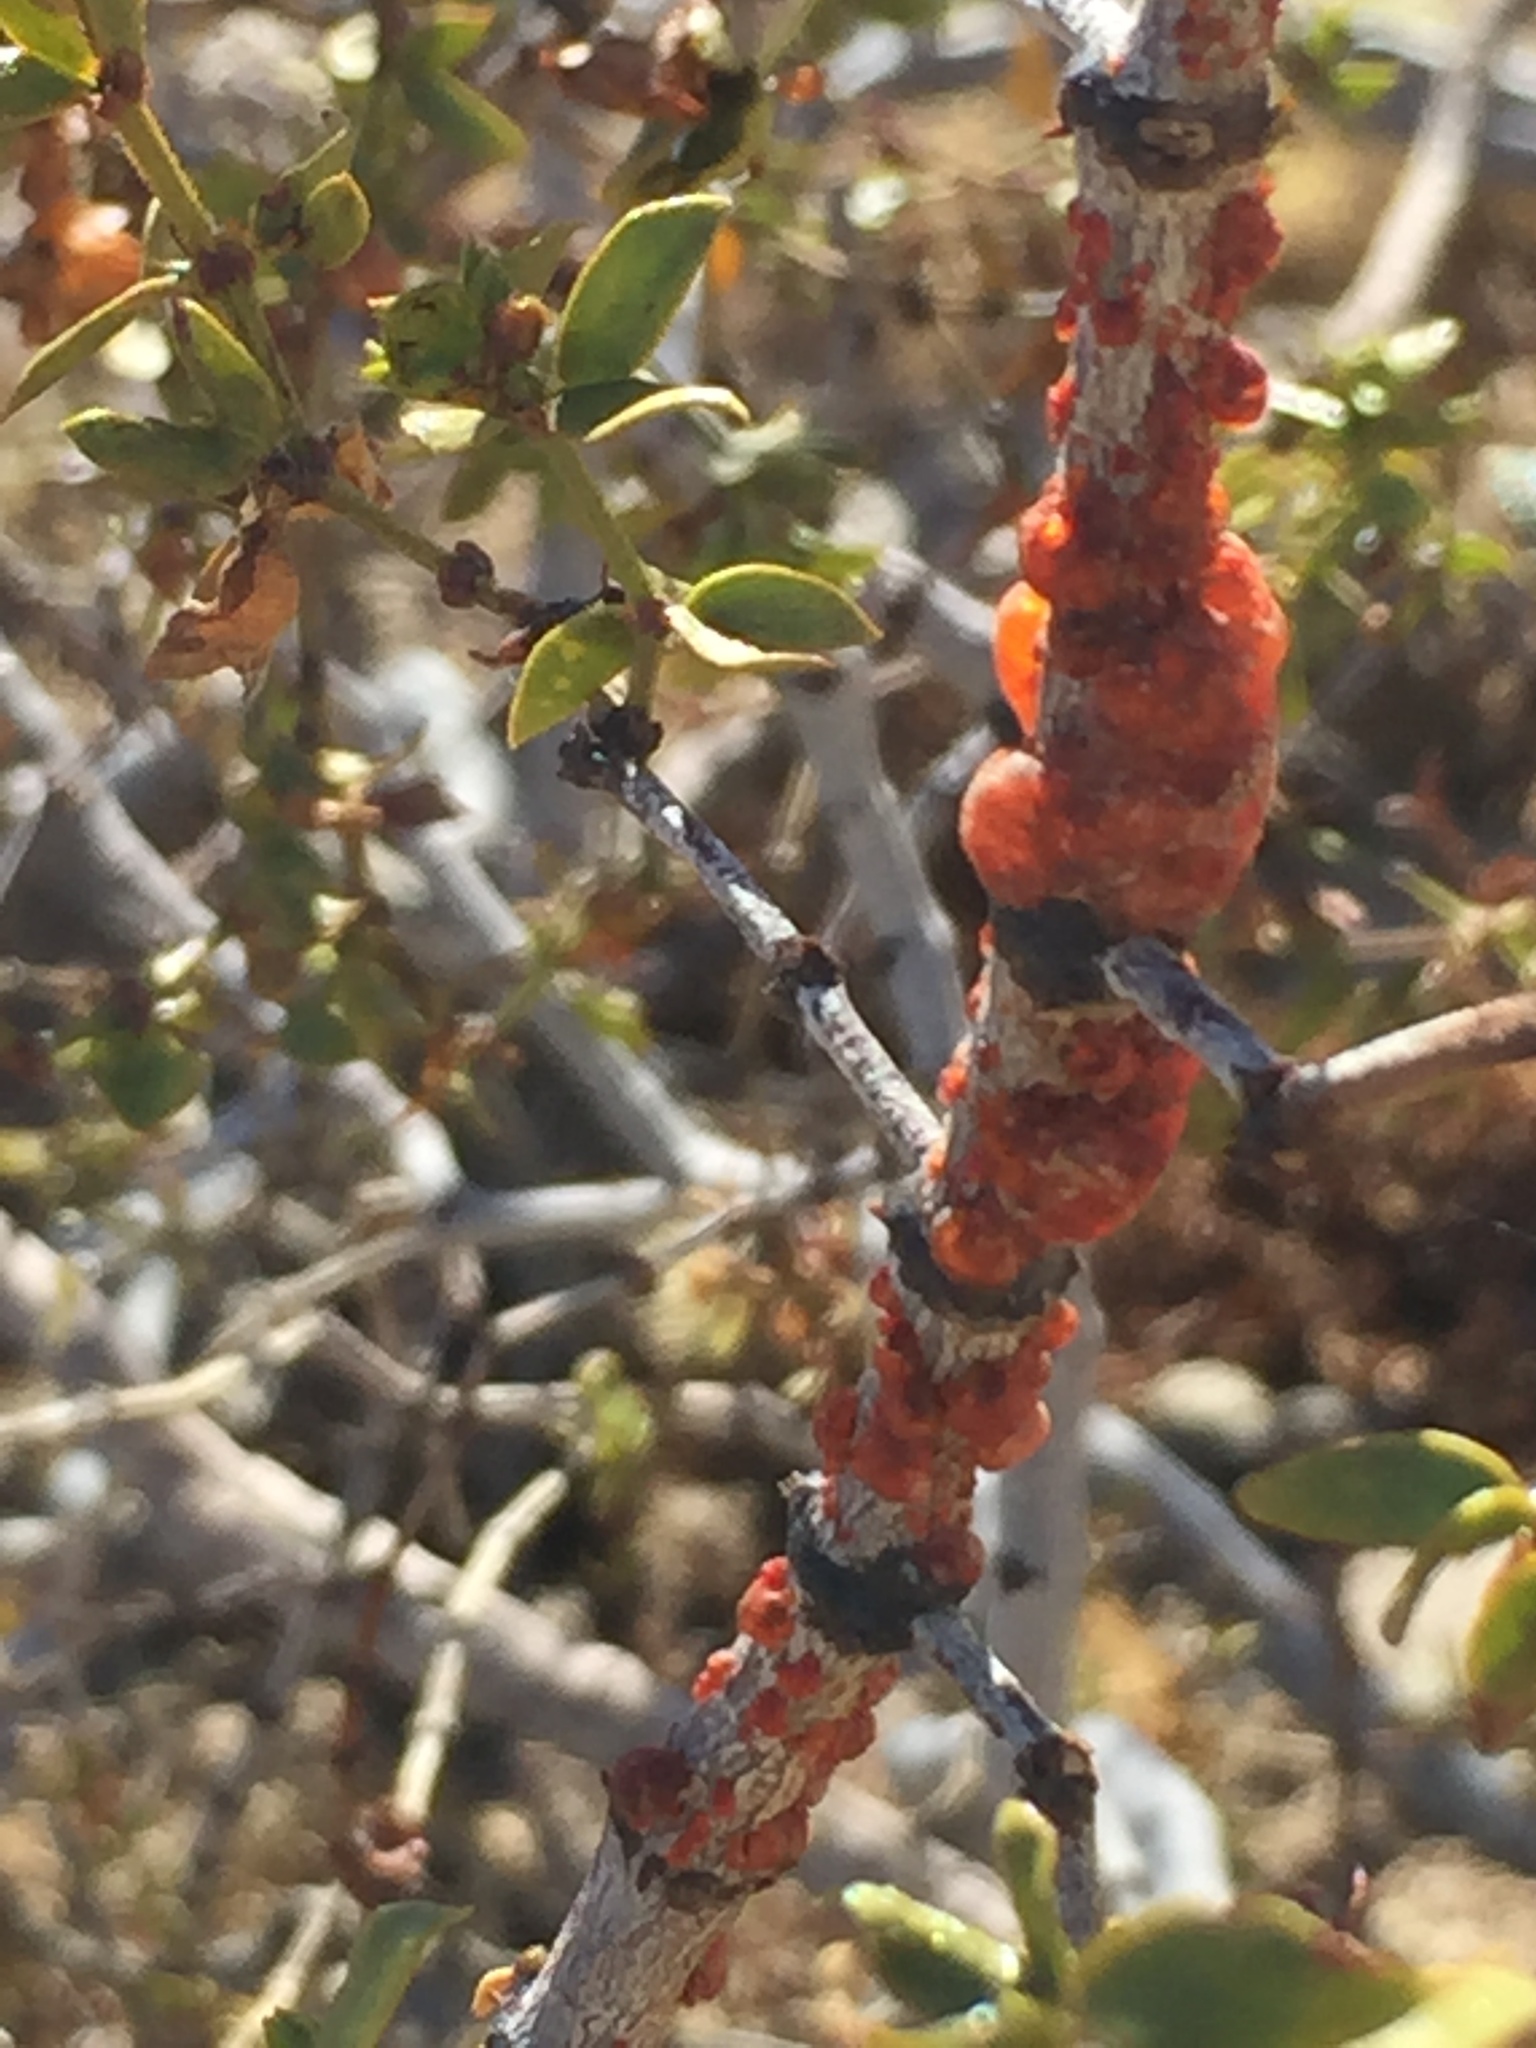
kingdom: Animalia
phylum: Arthropoda
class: Insecta
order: Hemiptera
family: Kerriidae
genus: Tachardiella
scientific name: Tachardiella larreae
